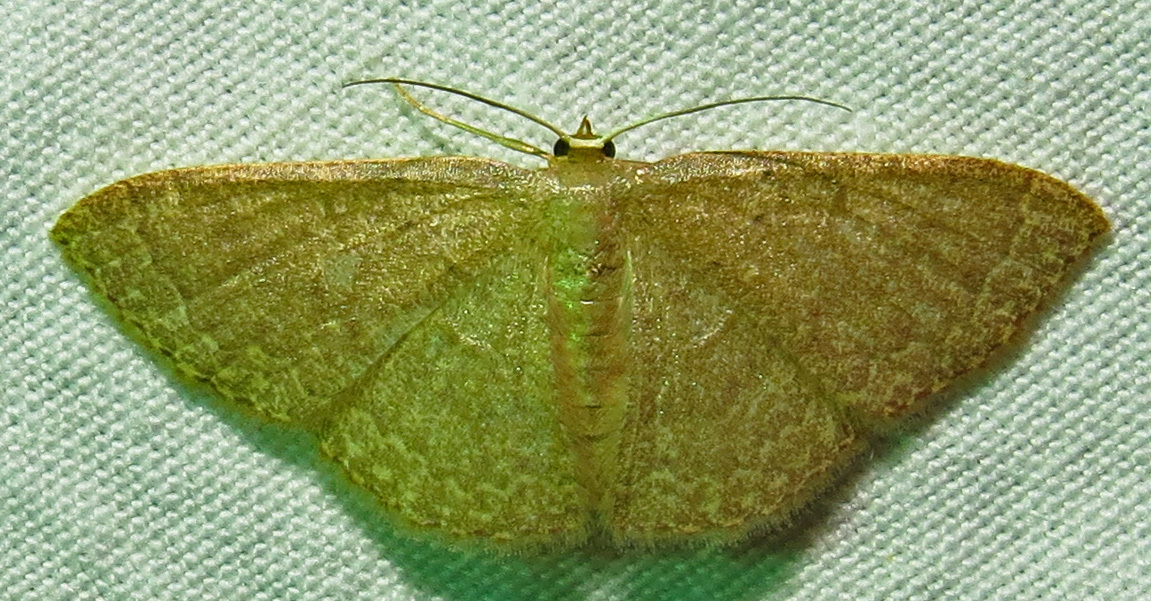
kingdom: Animalia
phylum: Arthropoda
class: Insecta
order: Lepidoptera
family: Geometridae
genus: Pleuroprucha
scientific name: Pleuroprucha insulsaria
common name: Common tan wave
